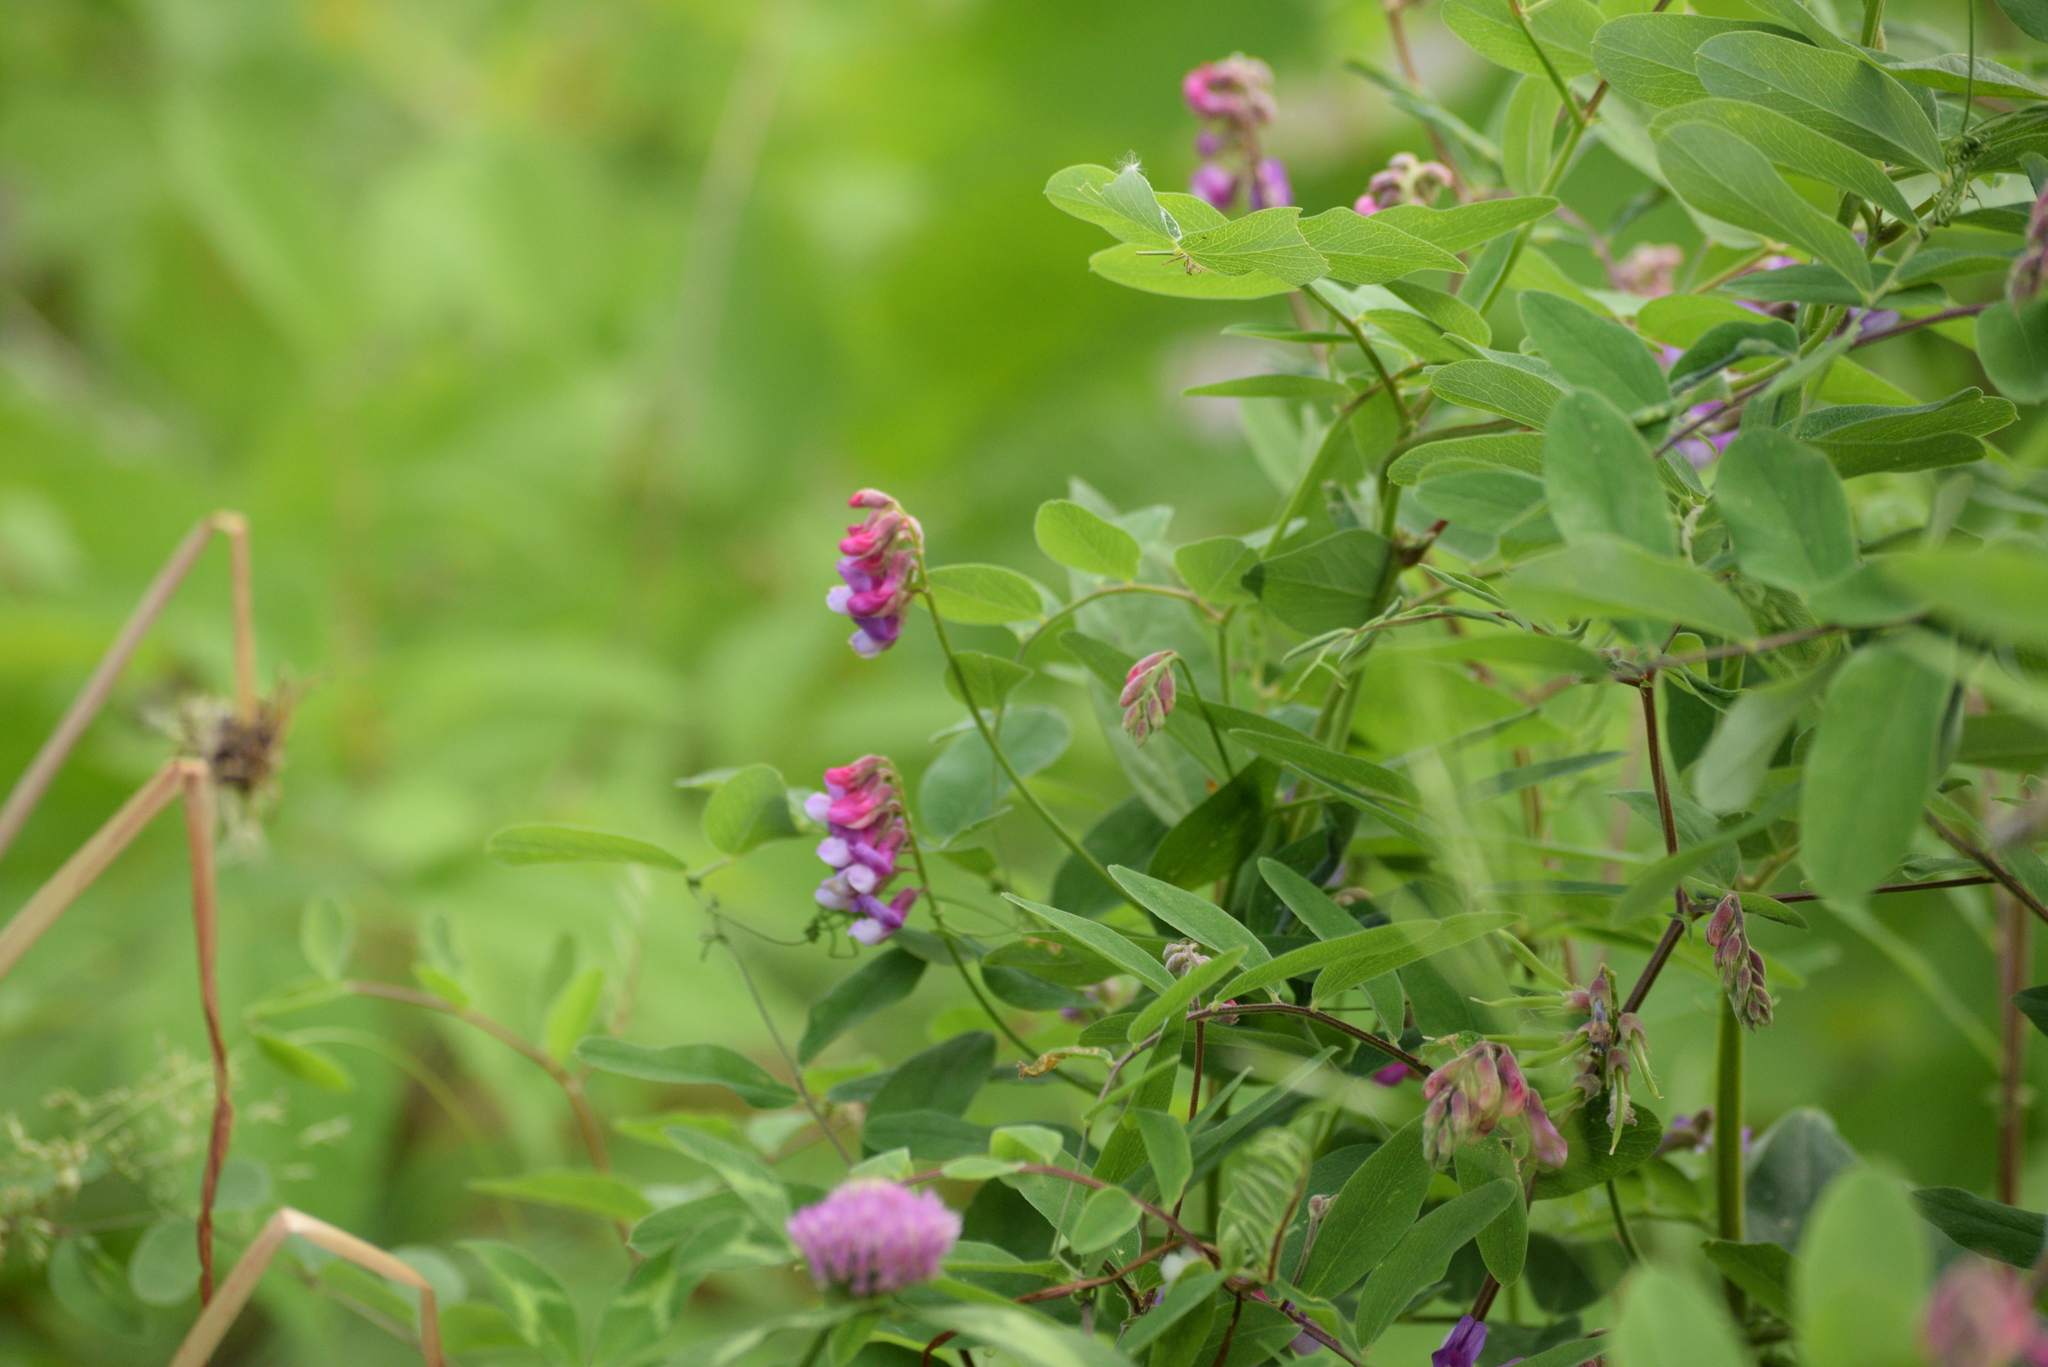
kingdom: Plantae
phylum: Tracheophyta
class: Magnoliopsida
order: Fabales
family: Fabaceae
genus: Lathyrus
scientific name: Lathyrus venosus
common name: Forest-pea
